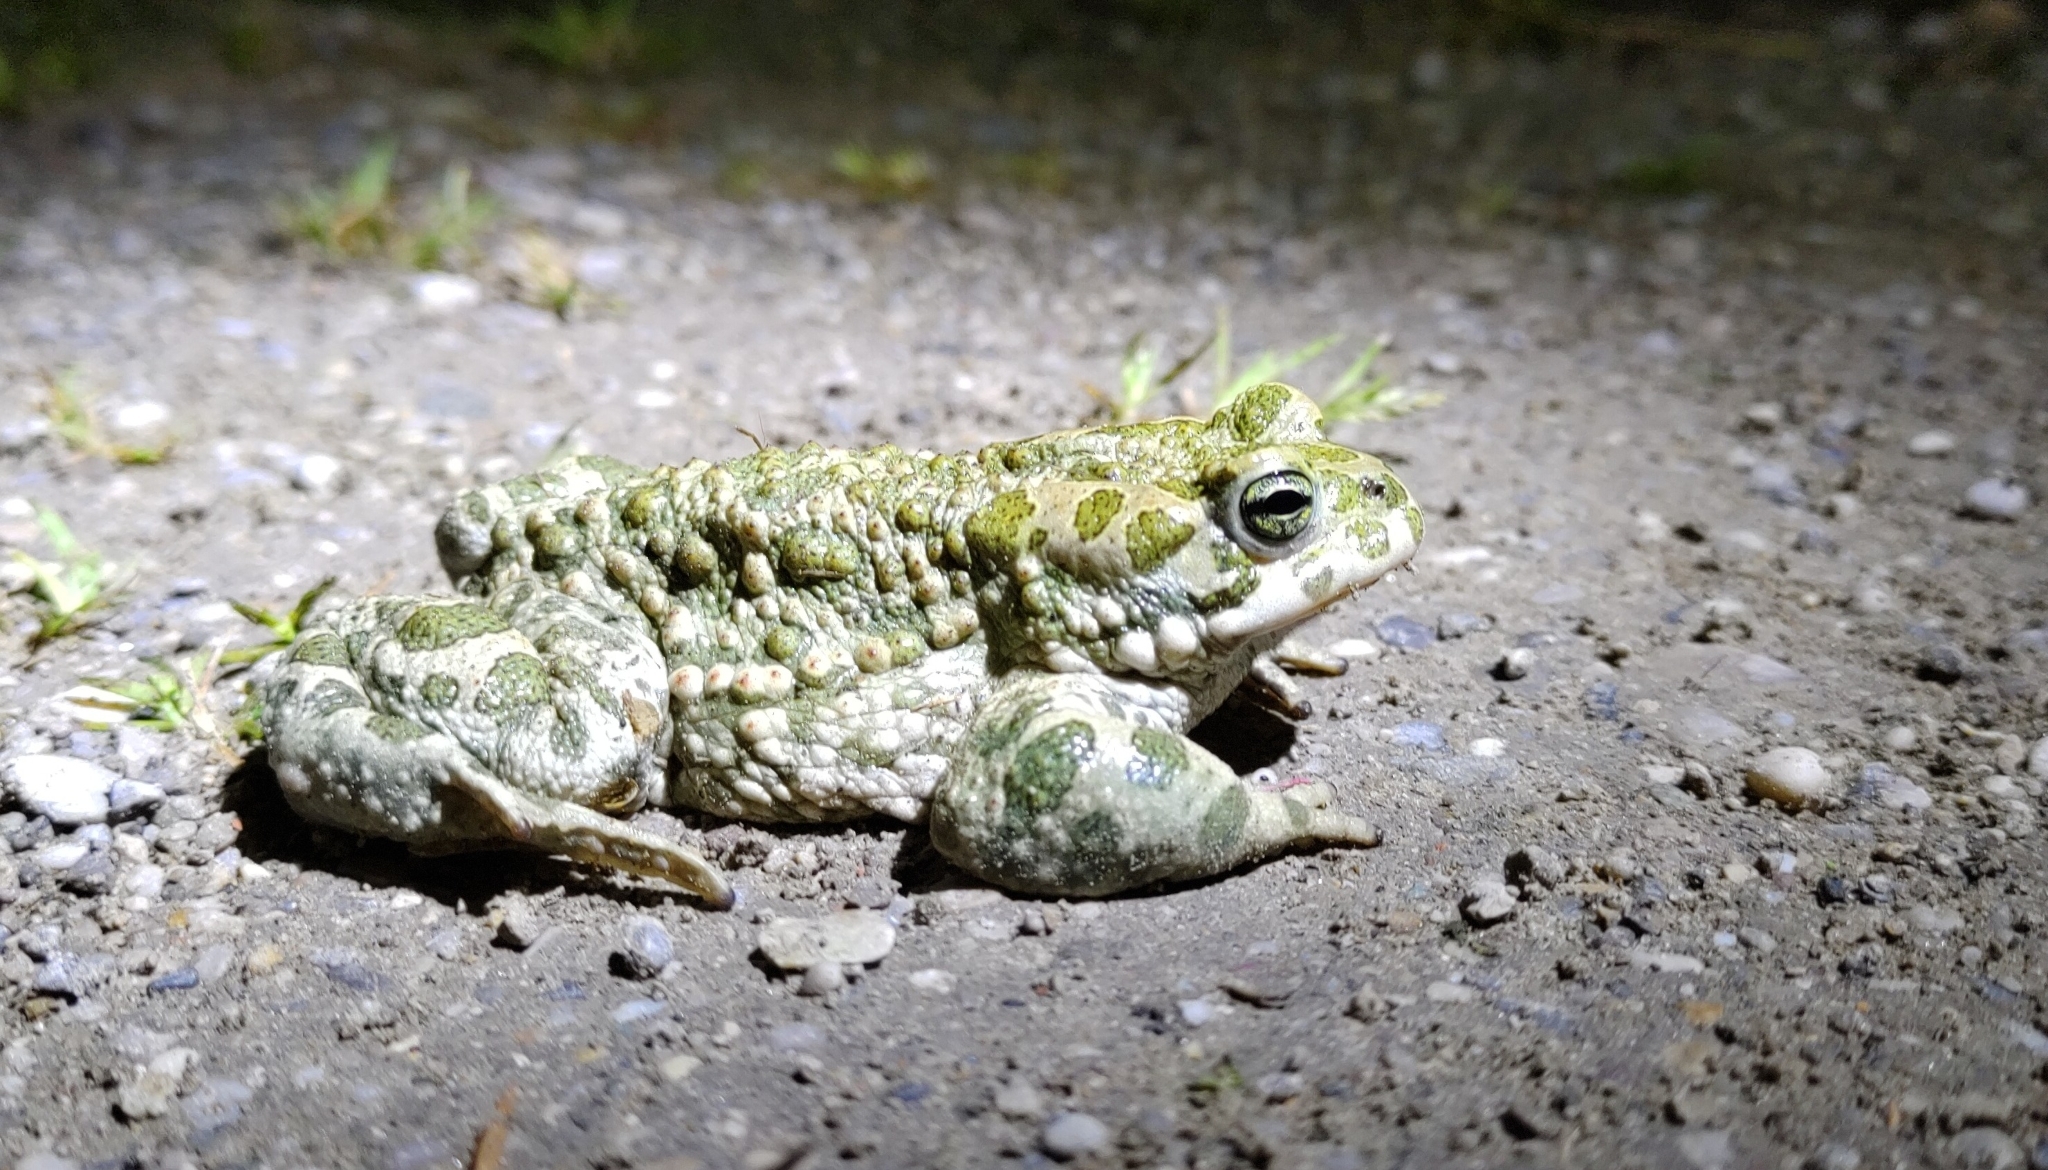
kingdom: Animalia
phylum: Chordata
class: Amphibia
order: Anura
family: Bufonidae
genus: Bufotes
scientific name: Bufotes viridis
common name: European green toad
